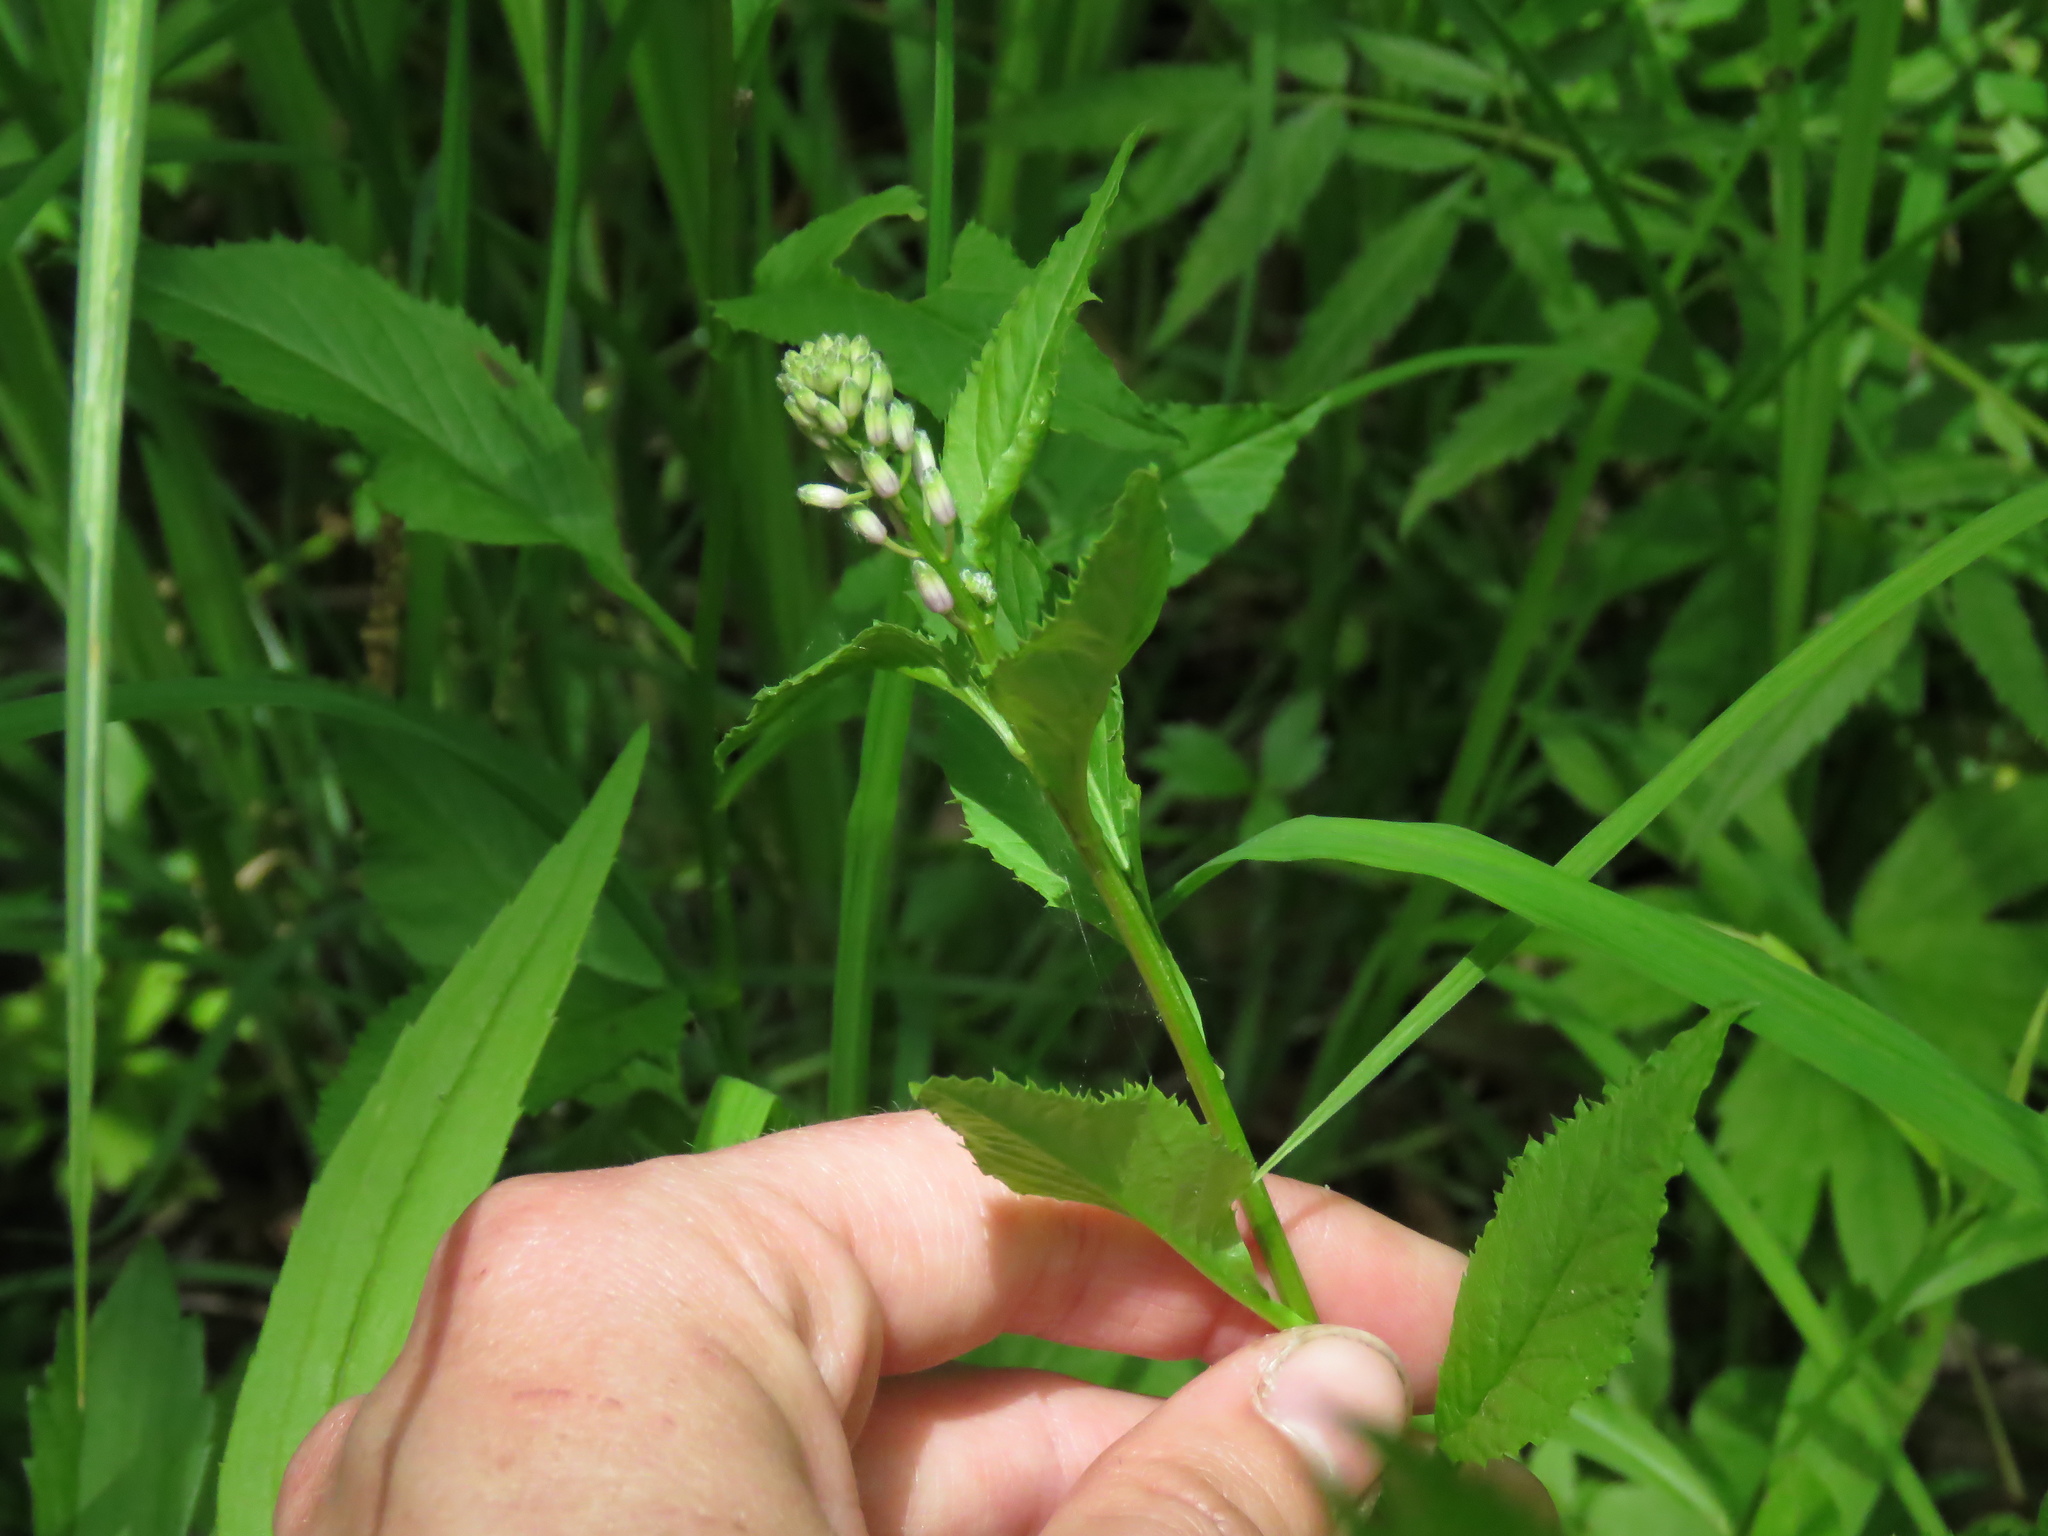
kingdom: Plantae
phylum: Tracheophyta
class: Magnoliopsida
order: Brassicales
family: Brassicaceae
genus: Iodanthus
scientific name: Iodanthus pinnatifidus
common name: Violet rocket
